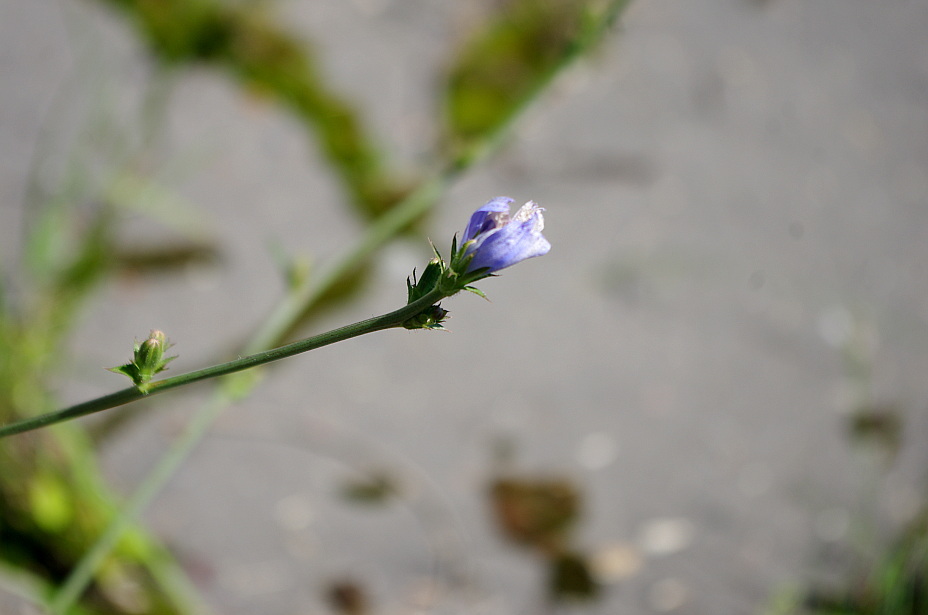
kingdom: Plantae
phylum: Tracheophyta
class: Magnoliopsida
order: Asterales
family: Asteraceae
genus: Cichorium
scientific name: Cichorium intybus
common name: Chicory
